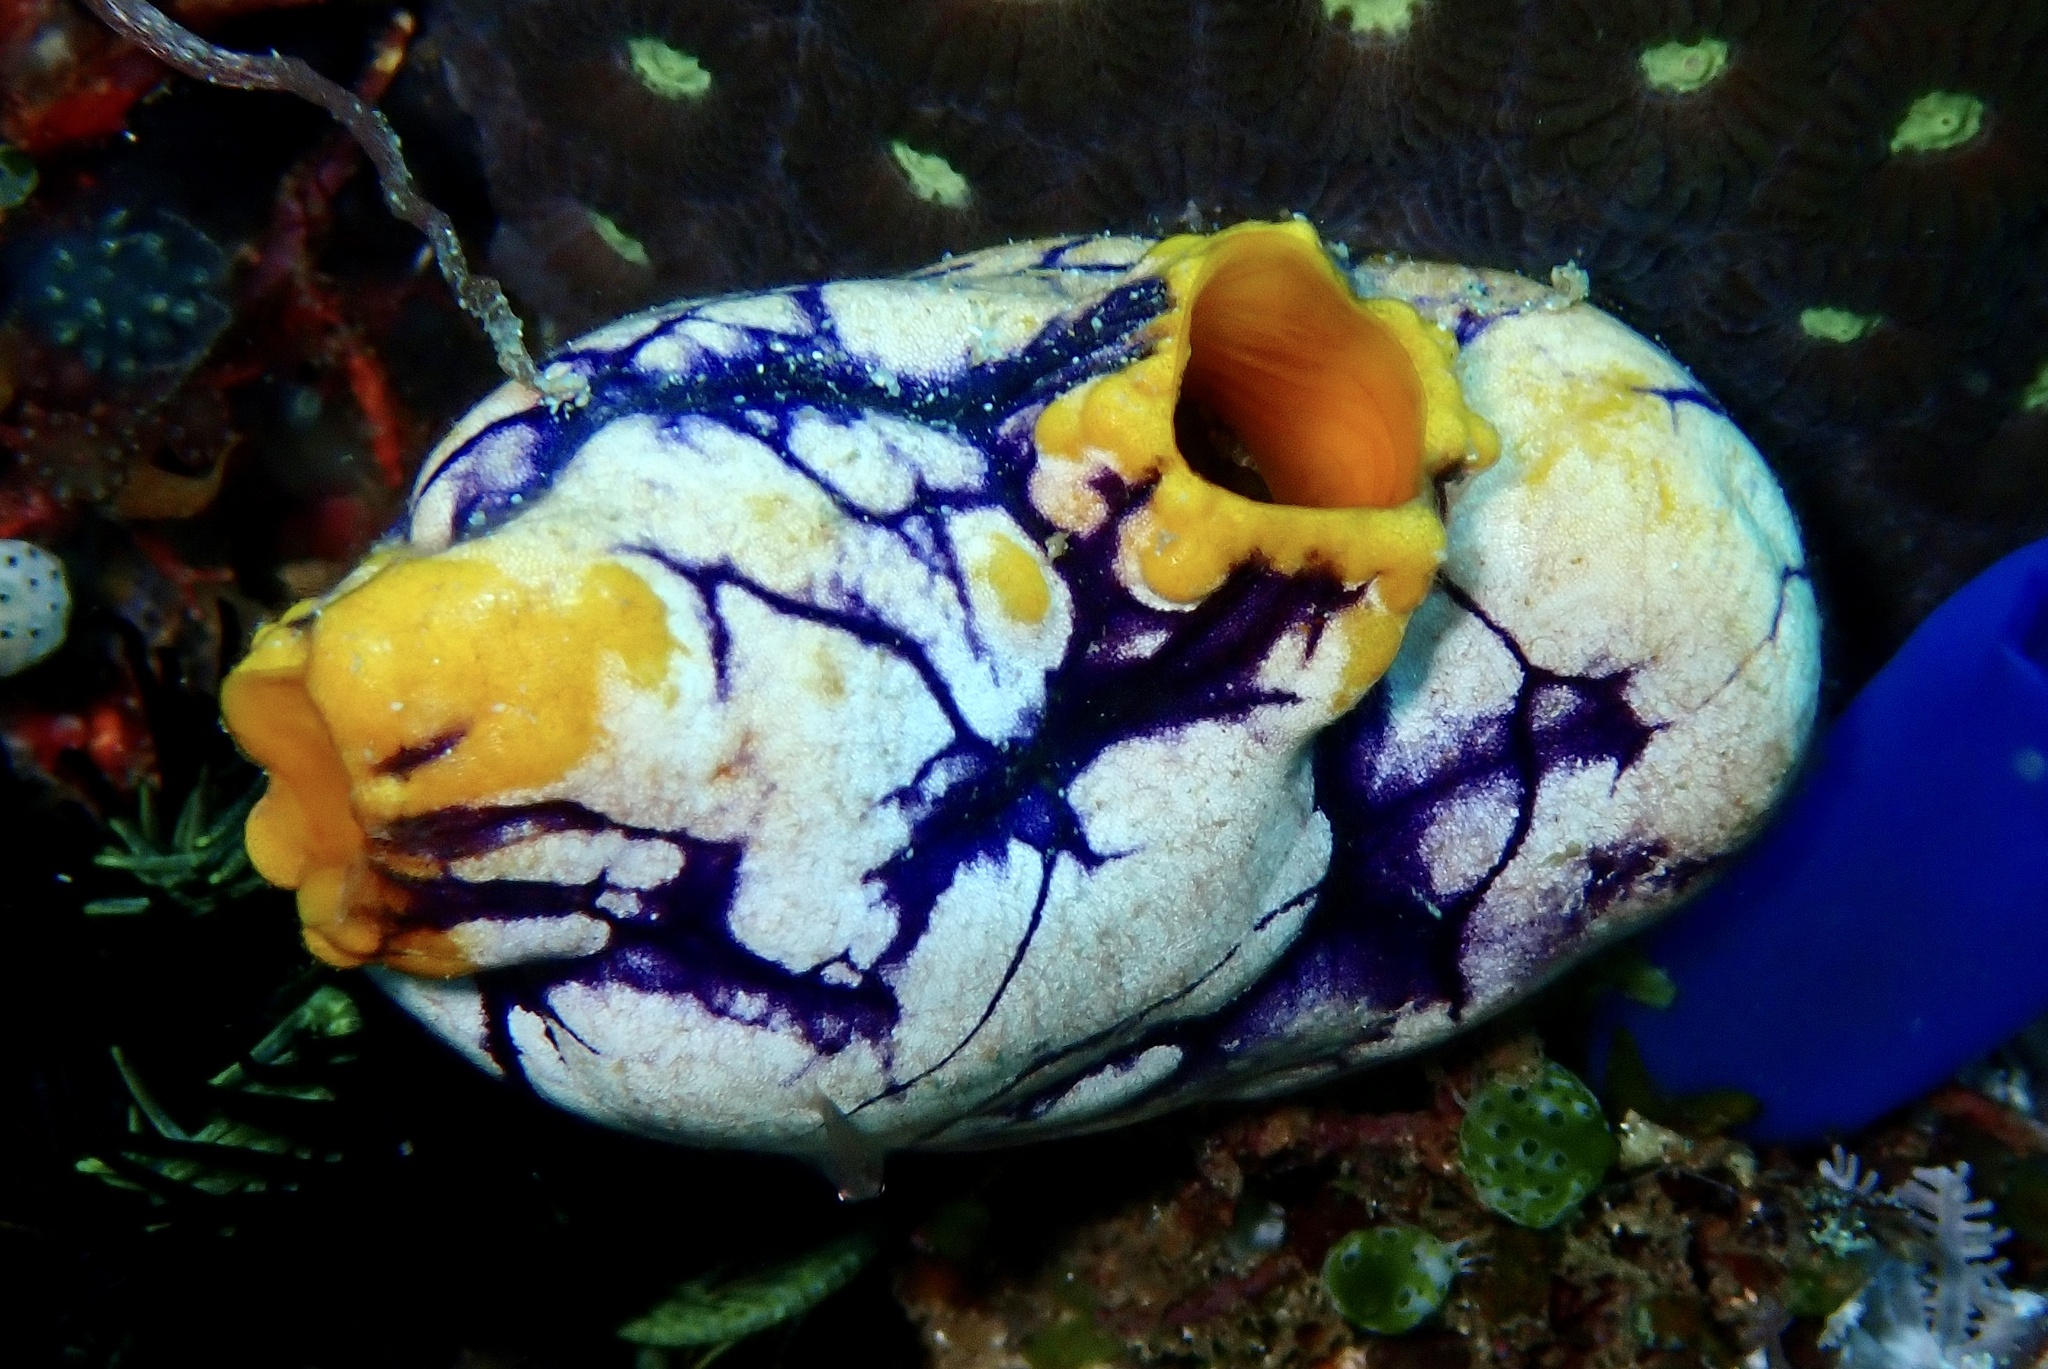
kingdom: Animalia
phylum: Chordata
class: Ascidiacea
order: Stolidobranchia
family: Styelidae
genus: Polycarpa
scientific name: Polycarpa aurata
